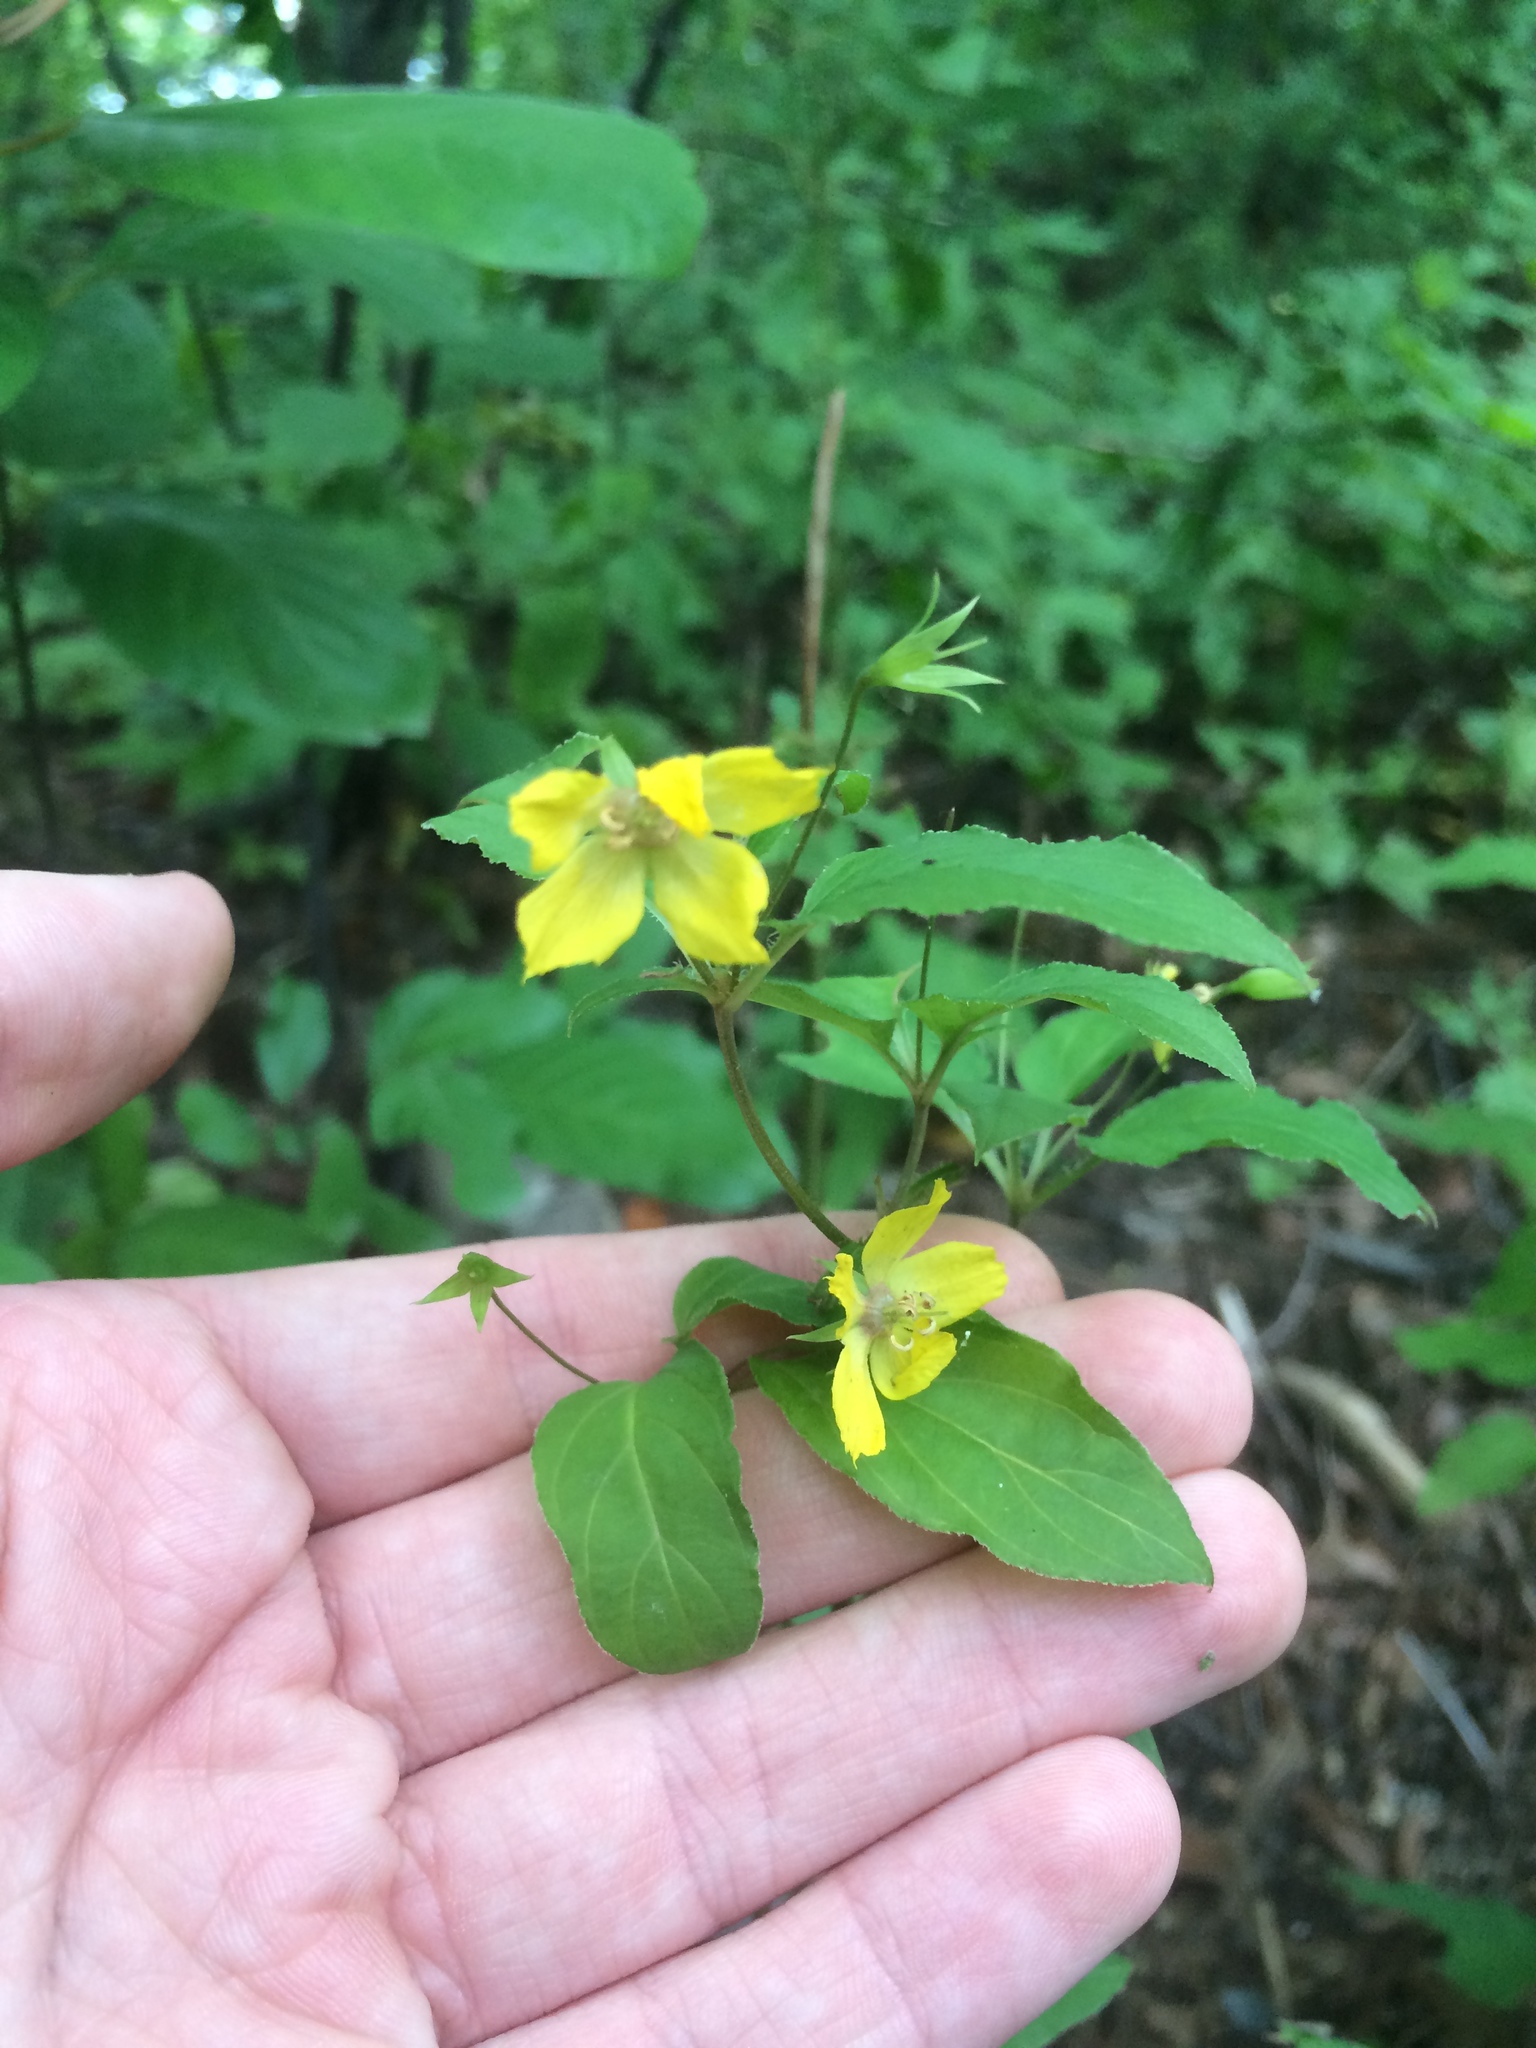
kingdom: Plantae
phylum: Tracheophyta
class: Magnoliopsida
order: Ericales
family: Primulaceae
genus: Lysimachia
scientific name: Lysimachia ciliata
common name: Fringed loosestrife
